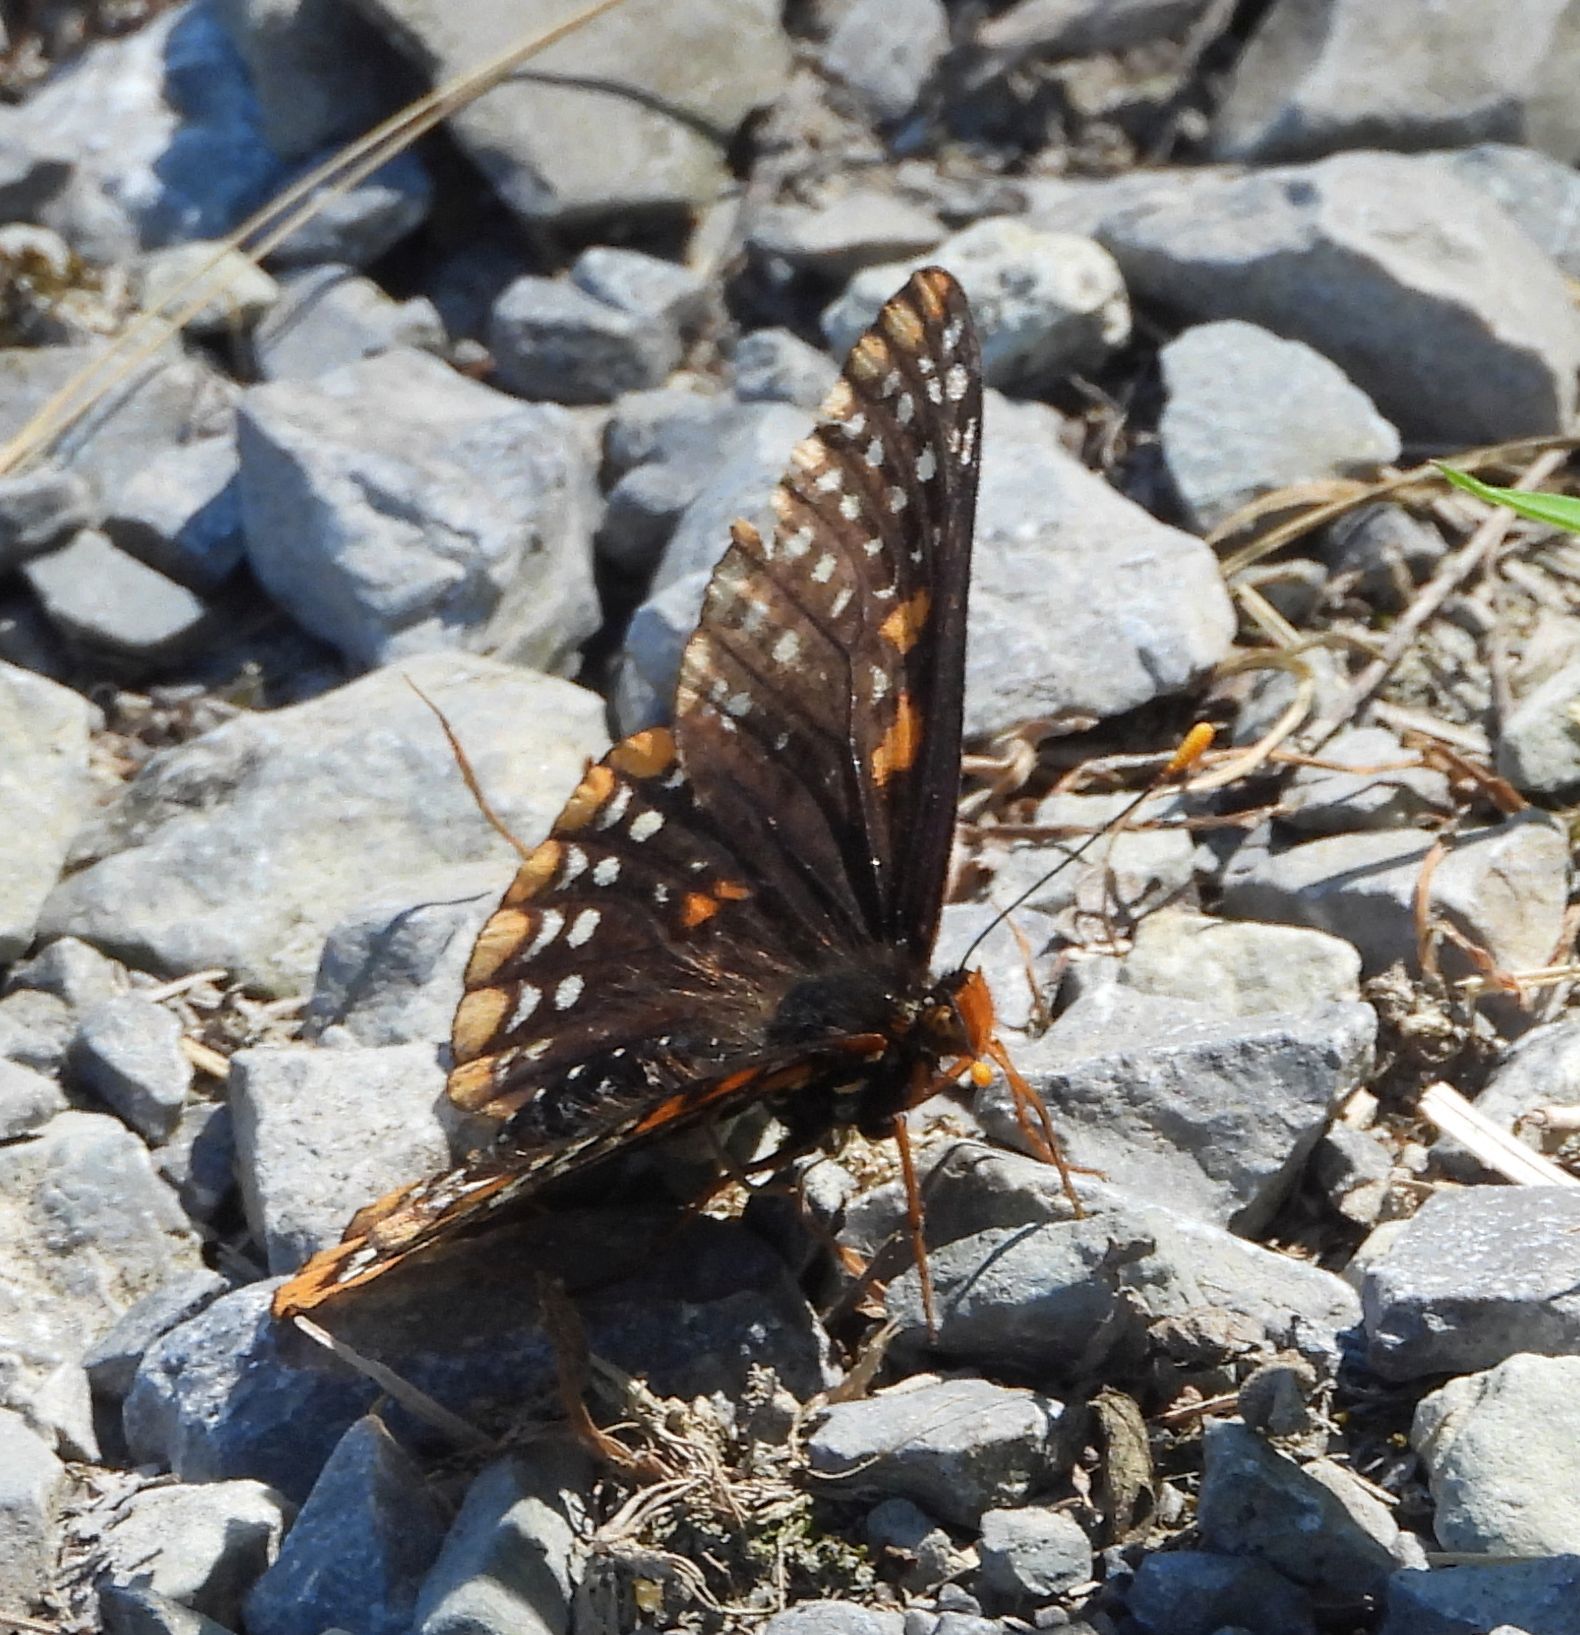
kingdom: Animalia
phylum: Arthropoda
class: Insecta
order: Lepidoptera
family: Nymphalidae
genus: Euphydryas
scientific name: Euphydryas phaeton
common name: Baltimore checkerspot
